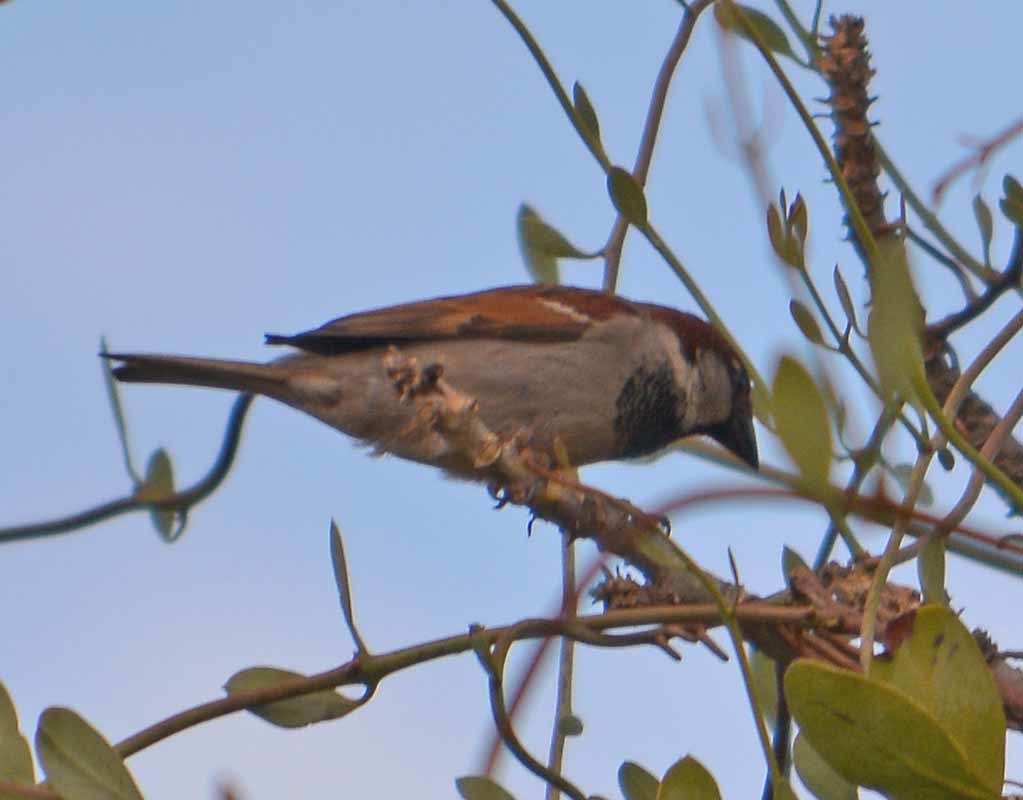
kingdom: Animalia
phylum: Chordata
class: Aves
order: Passeriformes
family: Passeridae
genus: Passer
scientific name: Passer domesticus
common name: House sparrow
